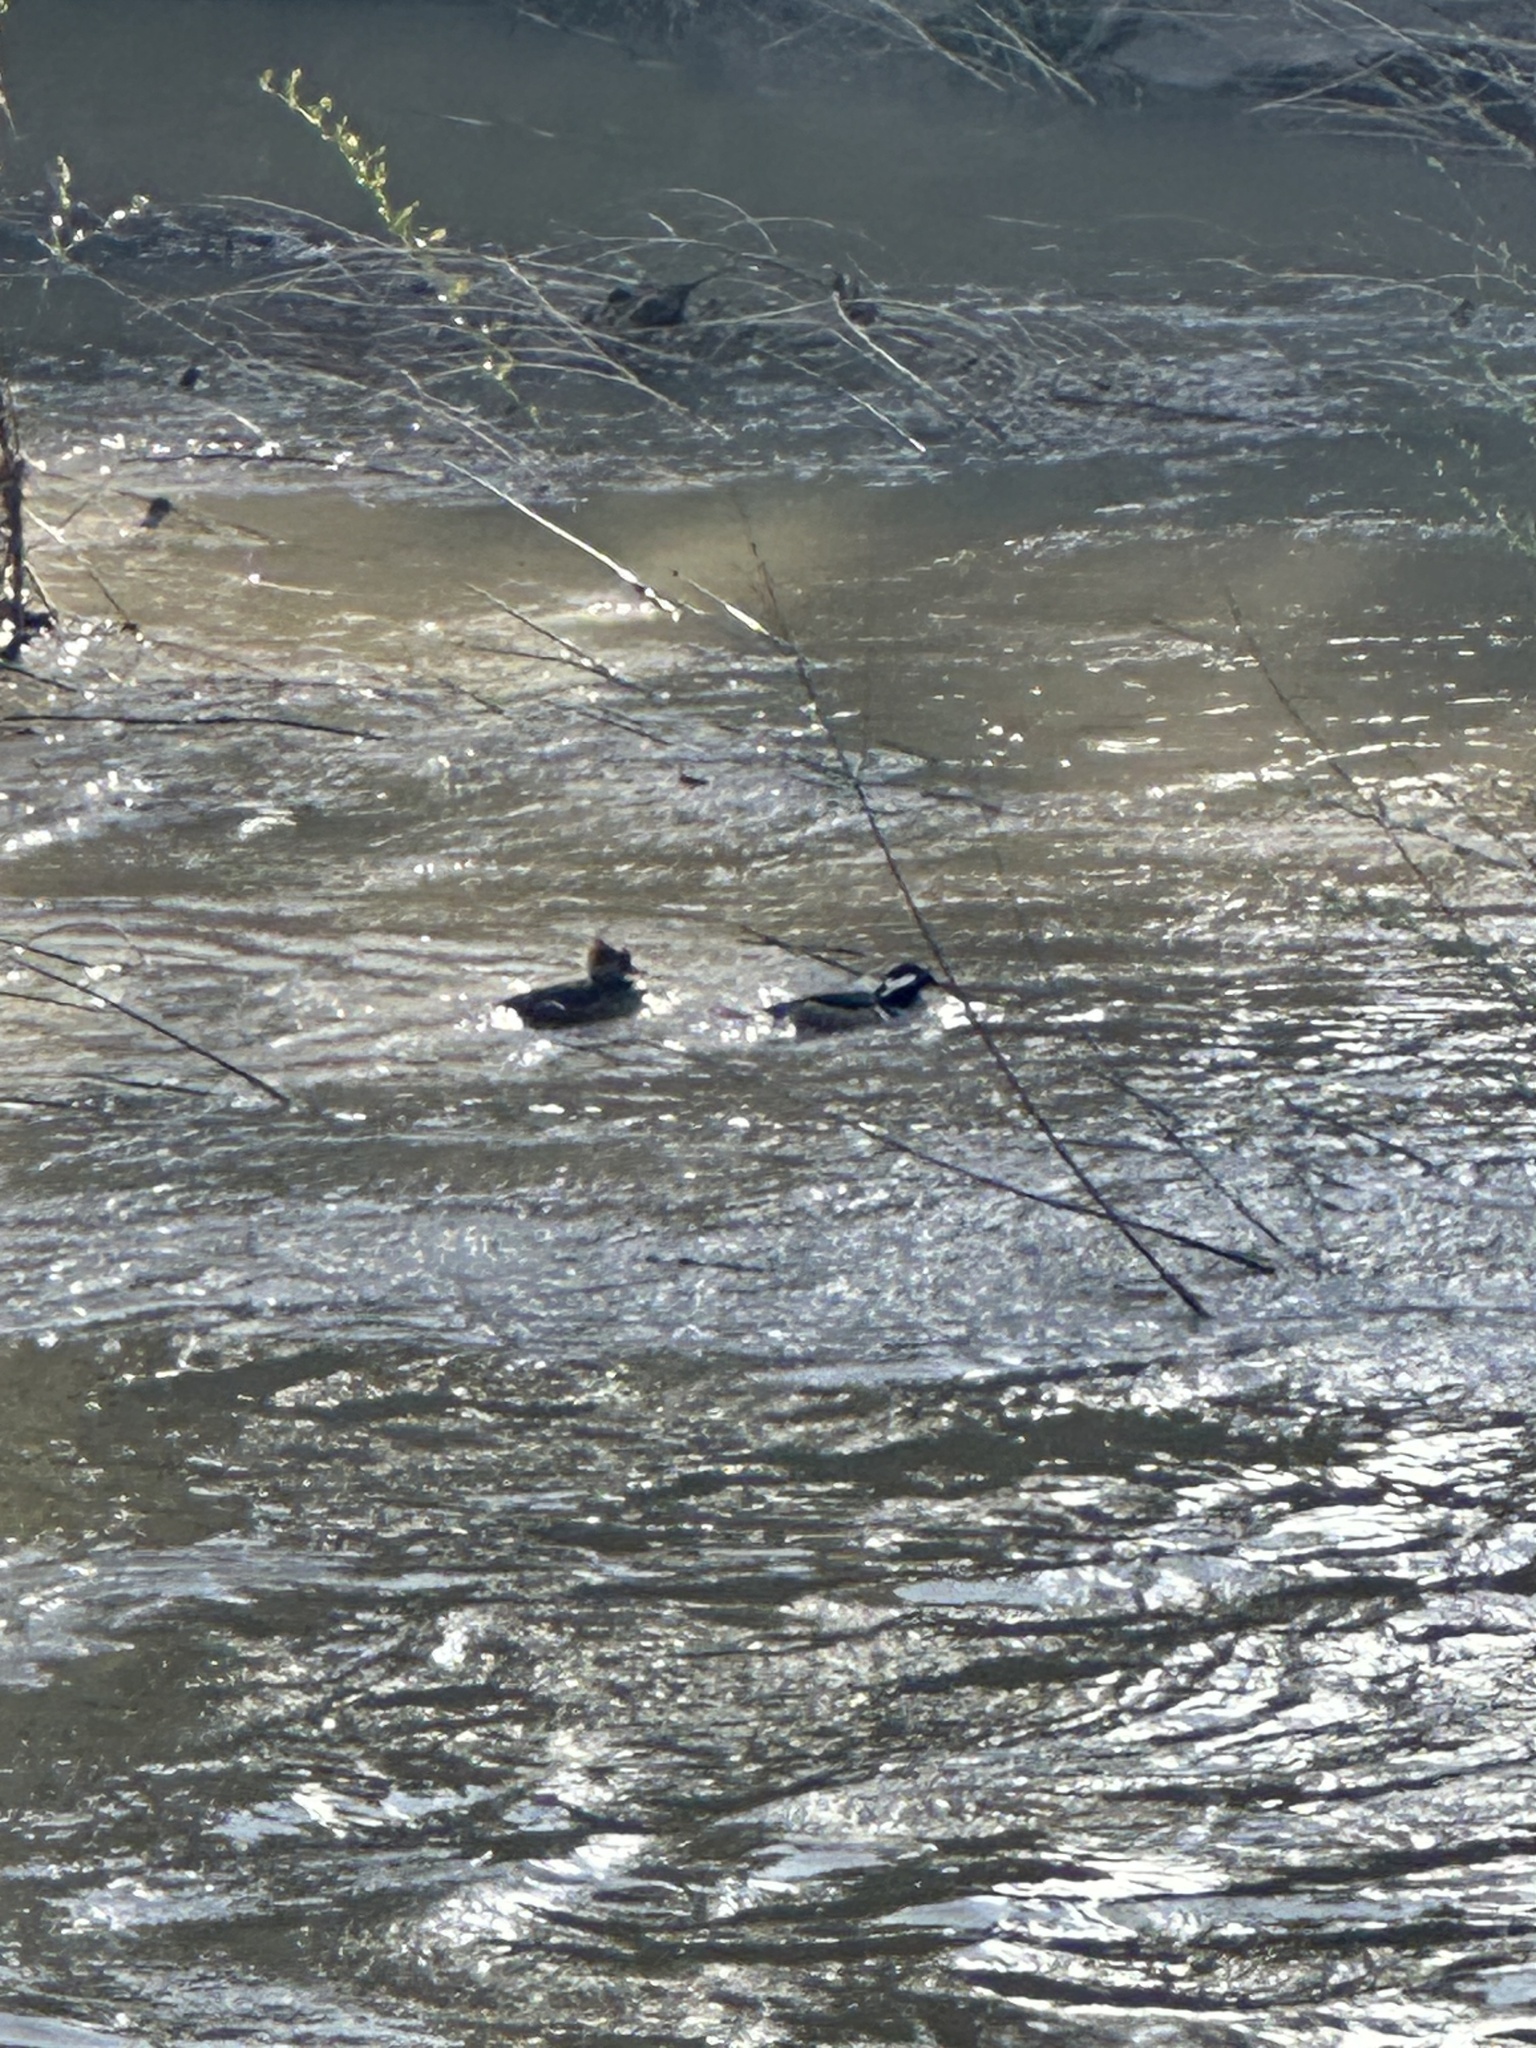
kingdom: Animalia
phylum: Chordata
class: Aves
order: Anseriformes
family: Anatidae
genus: Lophodytes
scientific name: Lophodytes cucullatus
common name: Hooded merganser
